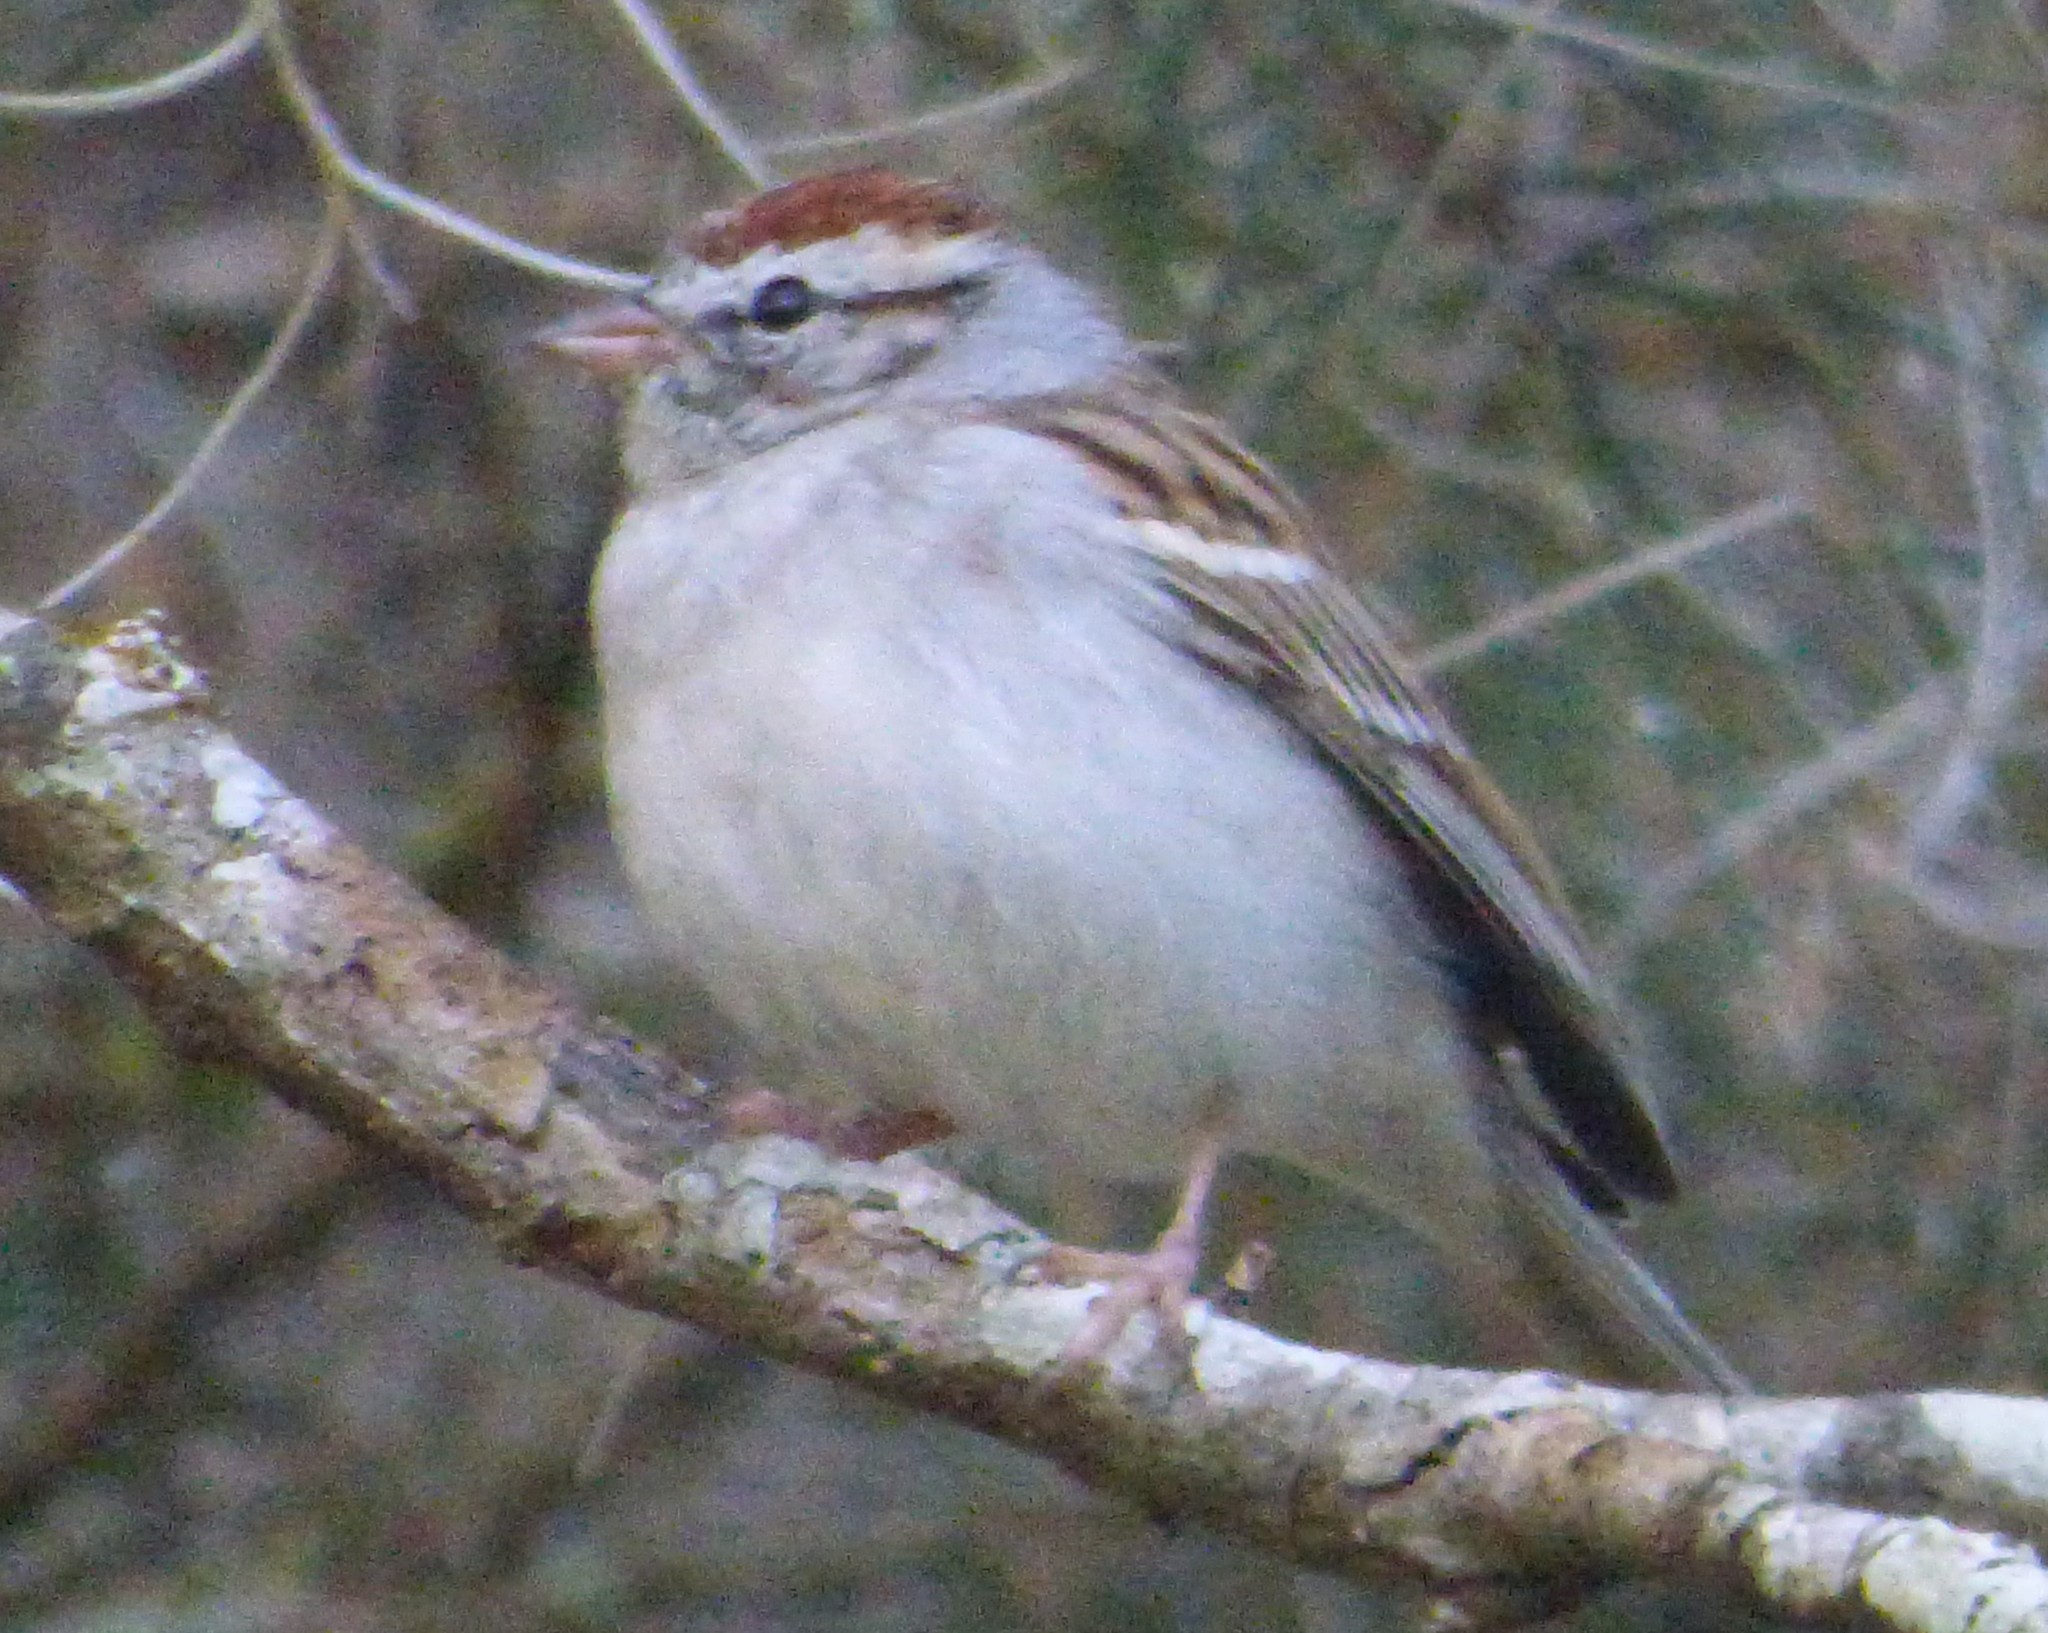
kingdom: Animalia
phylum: Chordata
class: Aves
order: Passeriformes
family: Passerellidae
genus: Spizella
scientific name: Spizella passerina
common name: Chipping sparrow
